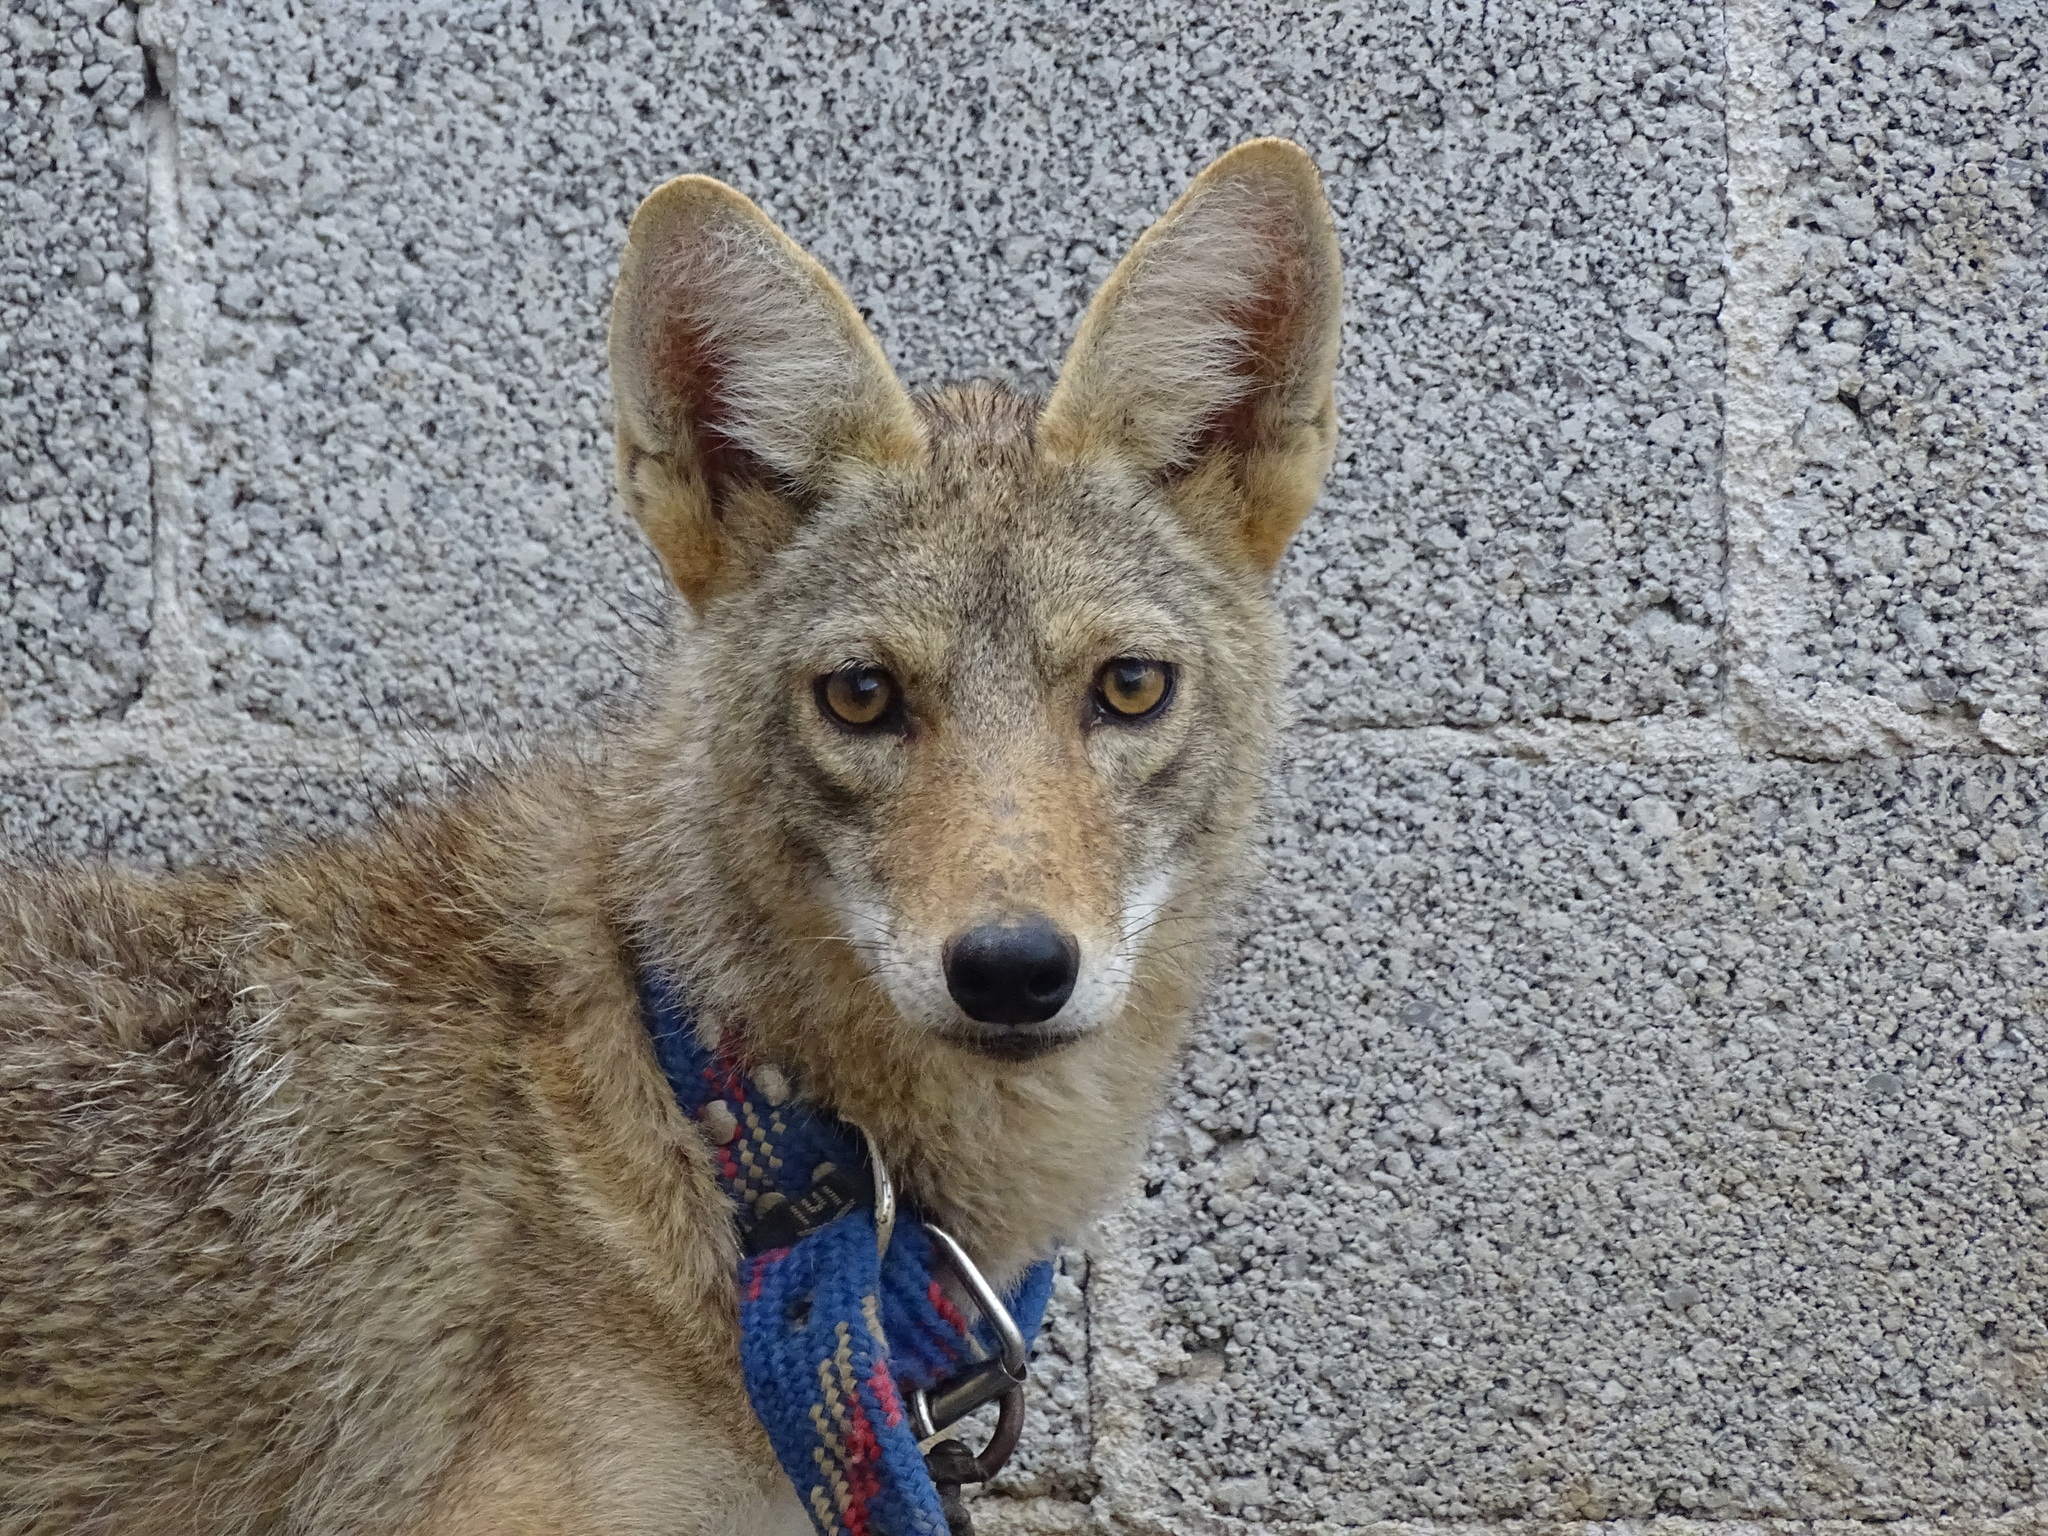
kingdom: Animalia
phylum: Chordata
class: Mammalia
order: Carnivora
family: Canidae
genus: Canis
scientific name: Canis latrans
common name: Coyote
